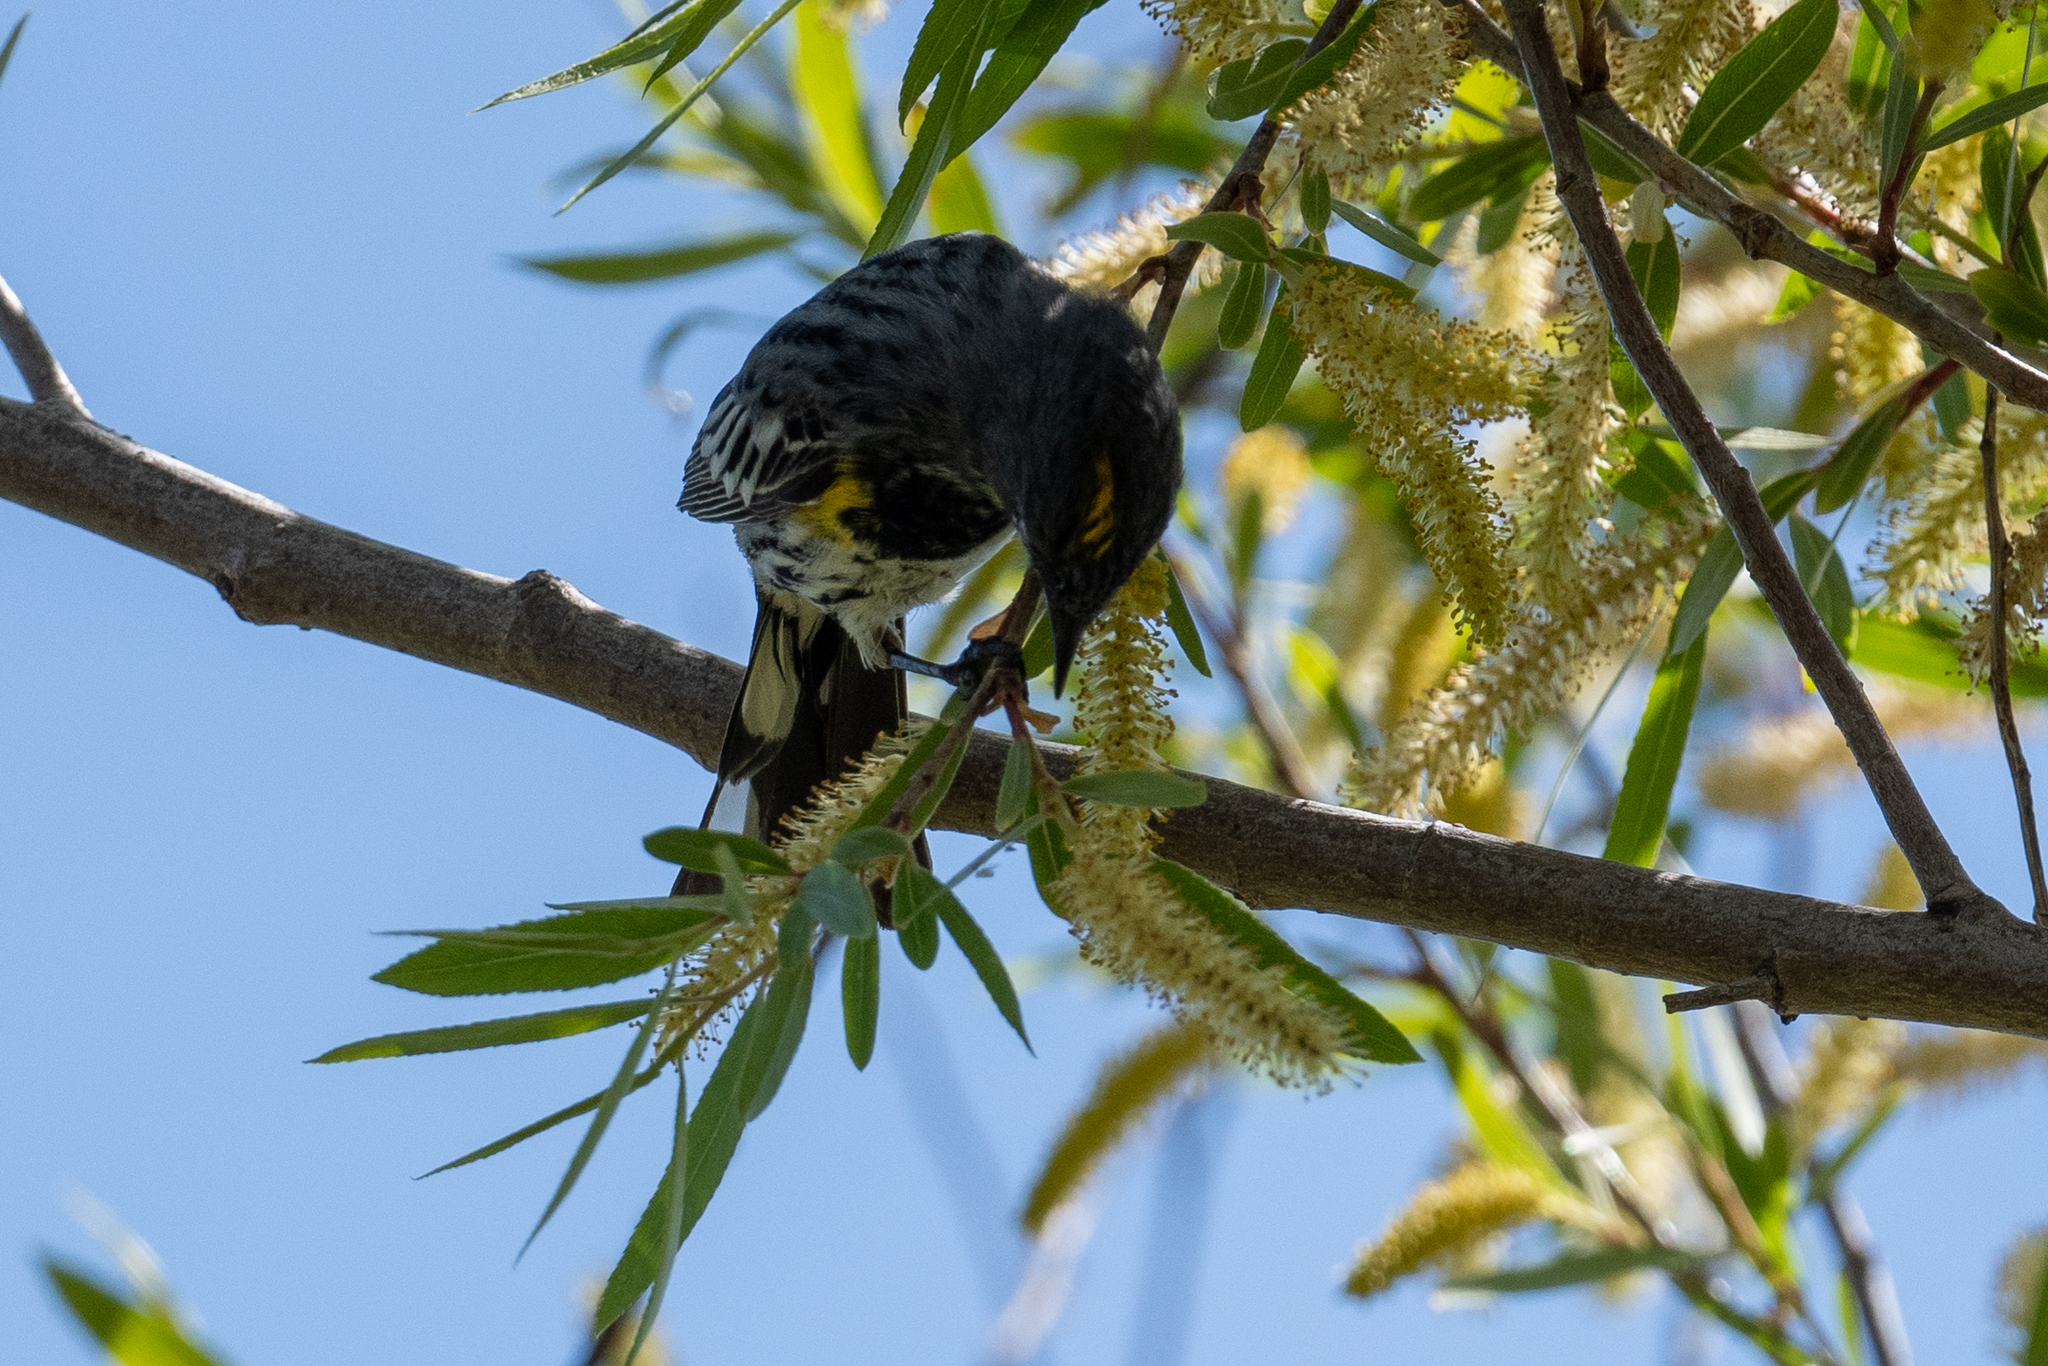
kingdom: Animalia
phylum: Chordata
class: Aves
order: Passeriformes
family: Parulidae
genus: Setophaga
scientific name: Setophaga coronata
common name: Myrtle warbler
